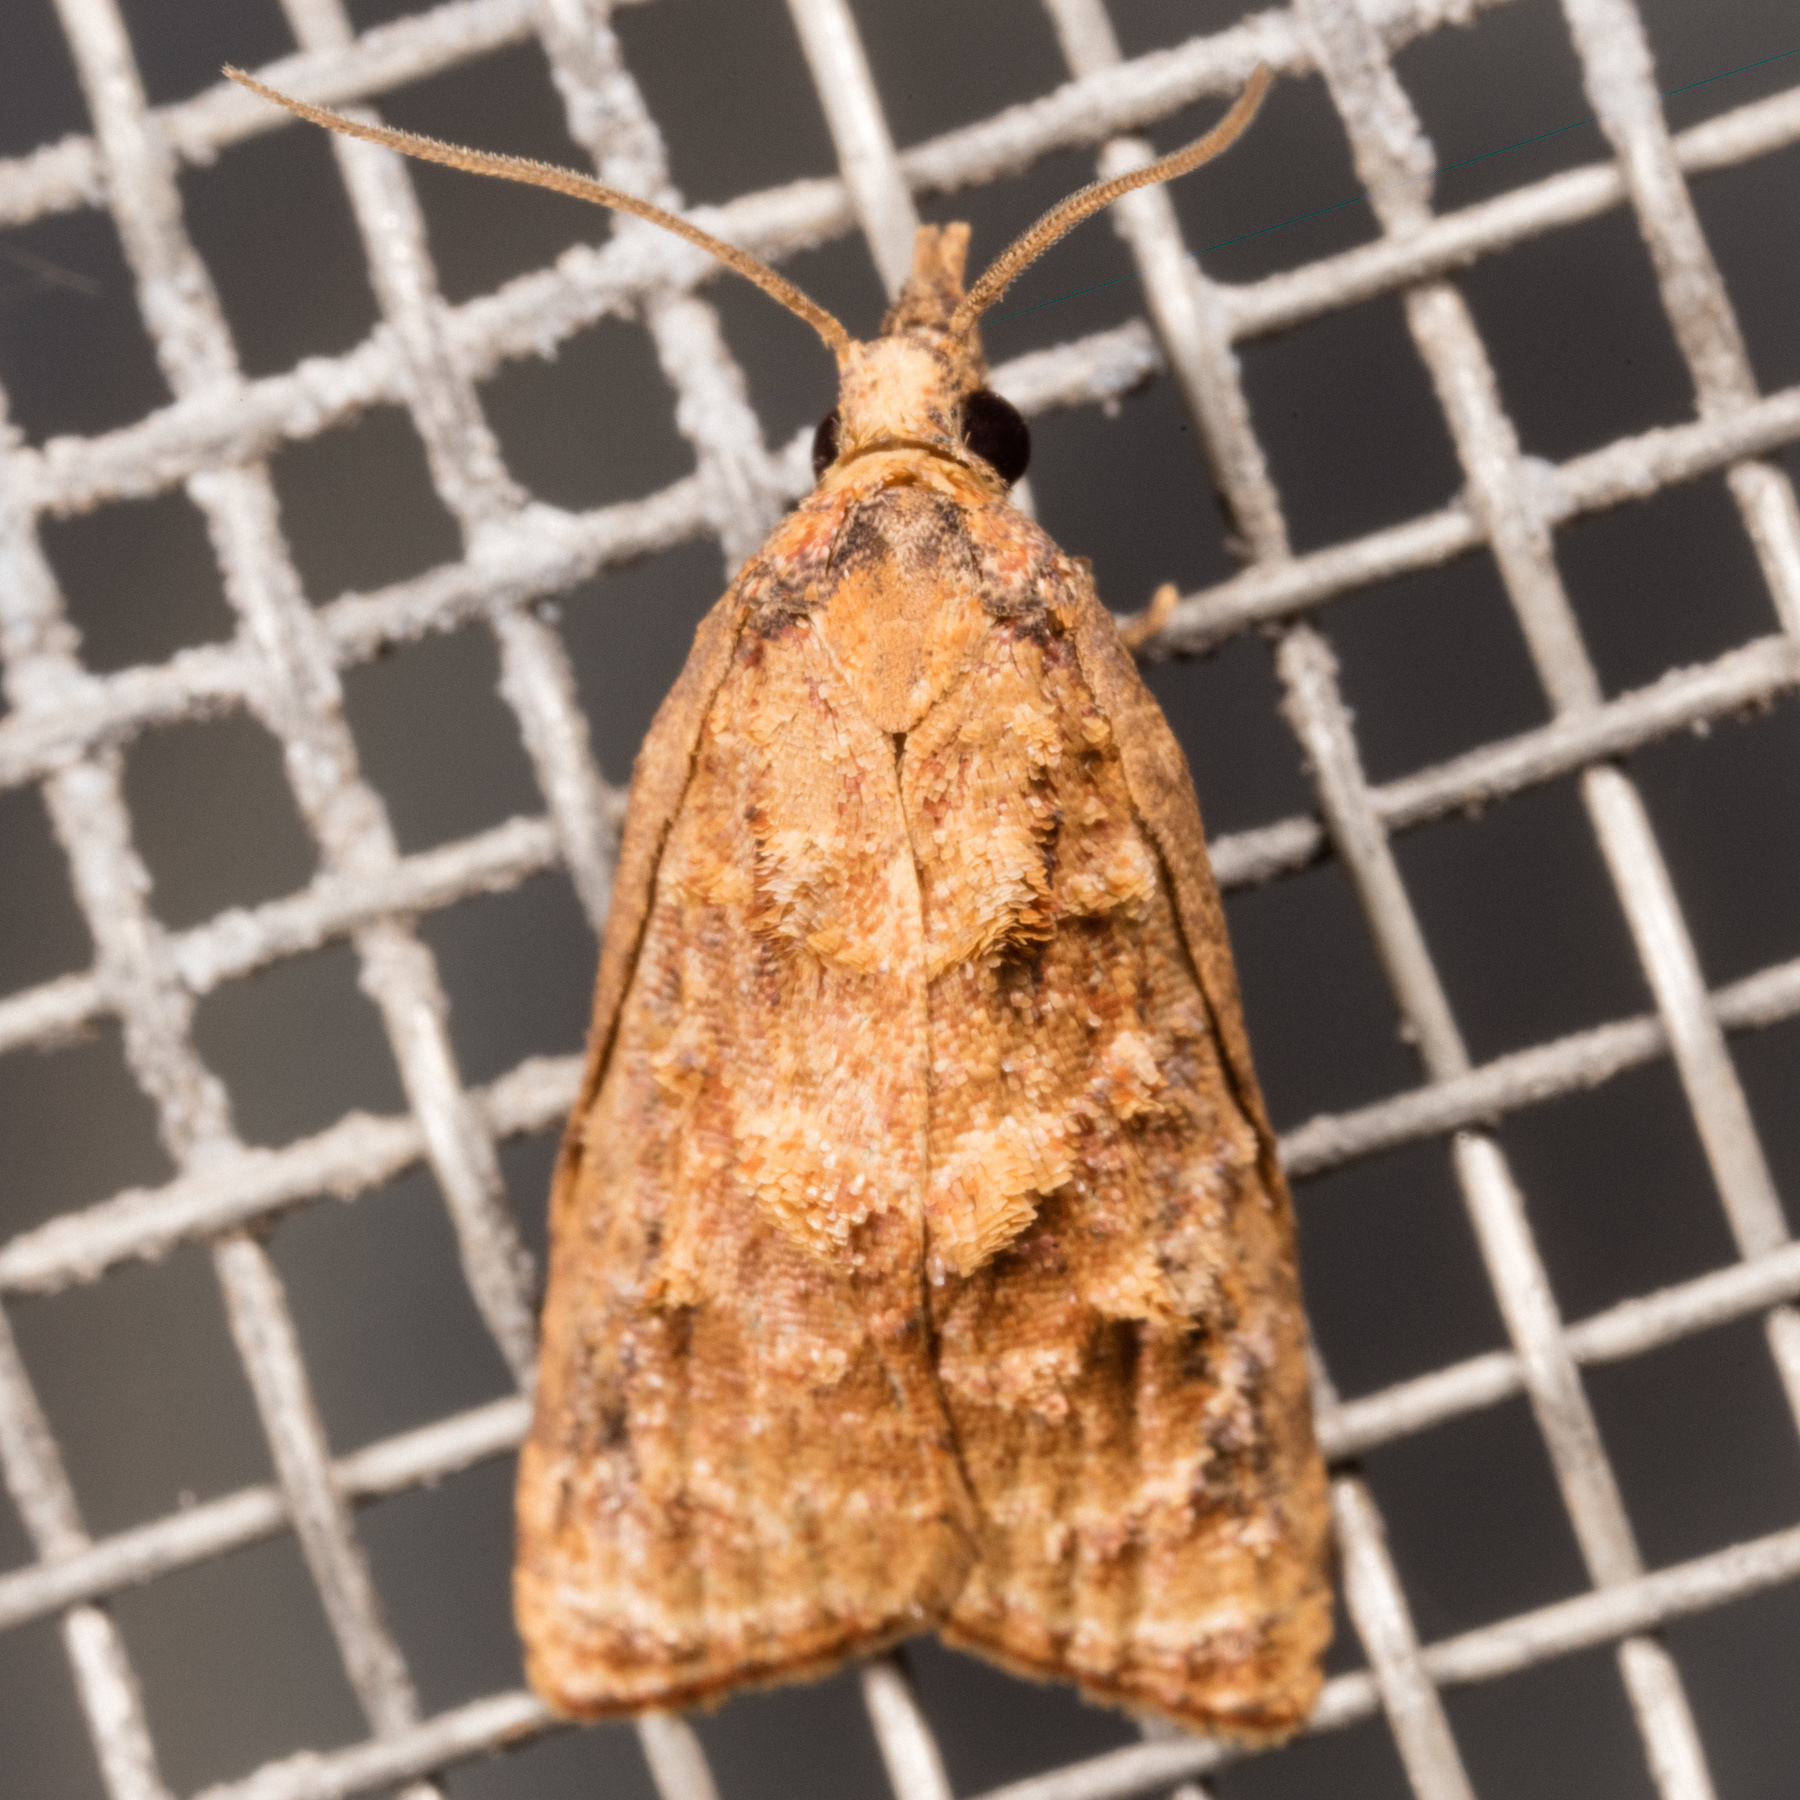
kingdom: Animalia
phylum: Arthropoda
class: Insecta
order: Lepidoptera
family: Tortricidae
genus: Platynota
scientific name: Platynota rostrana
